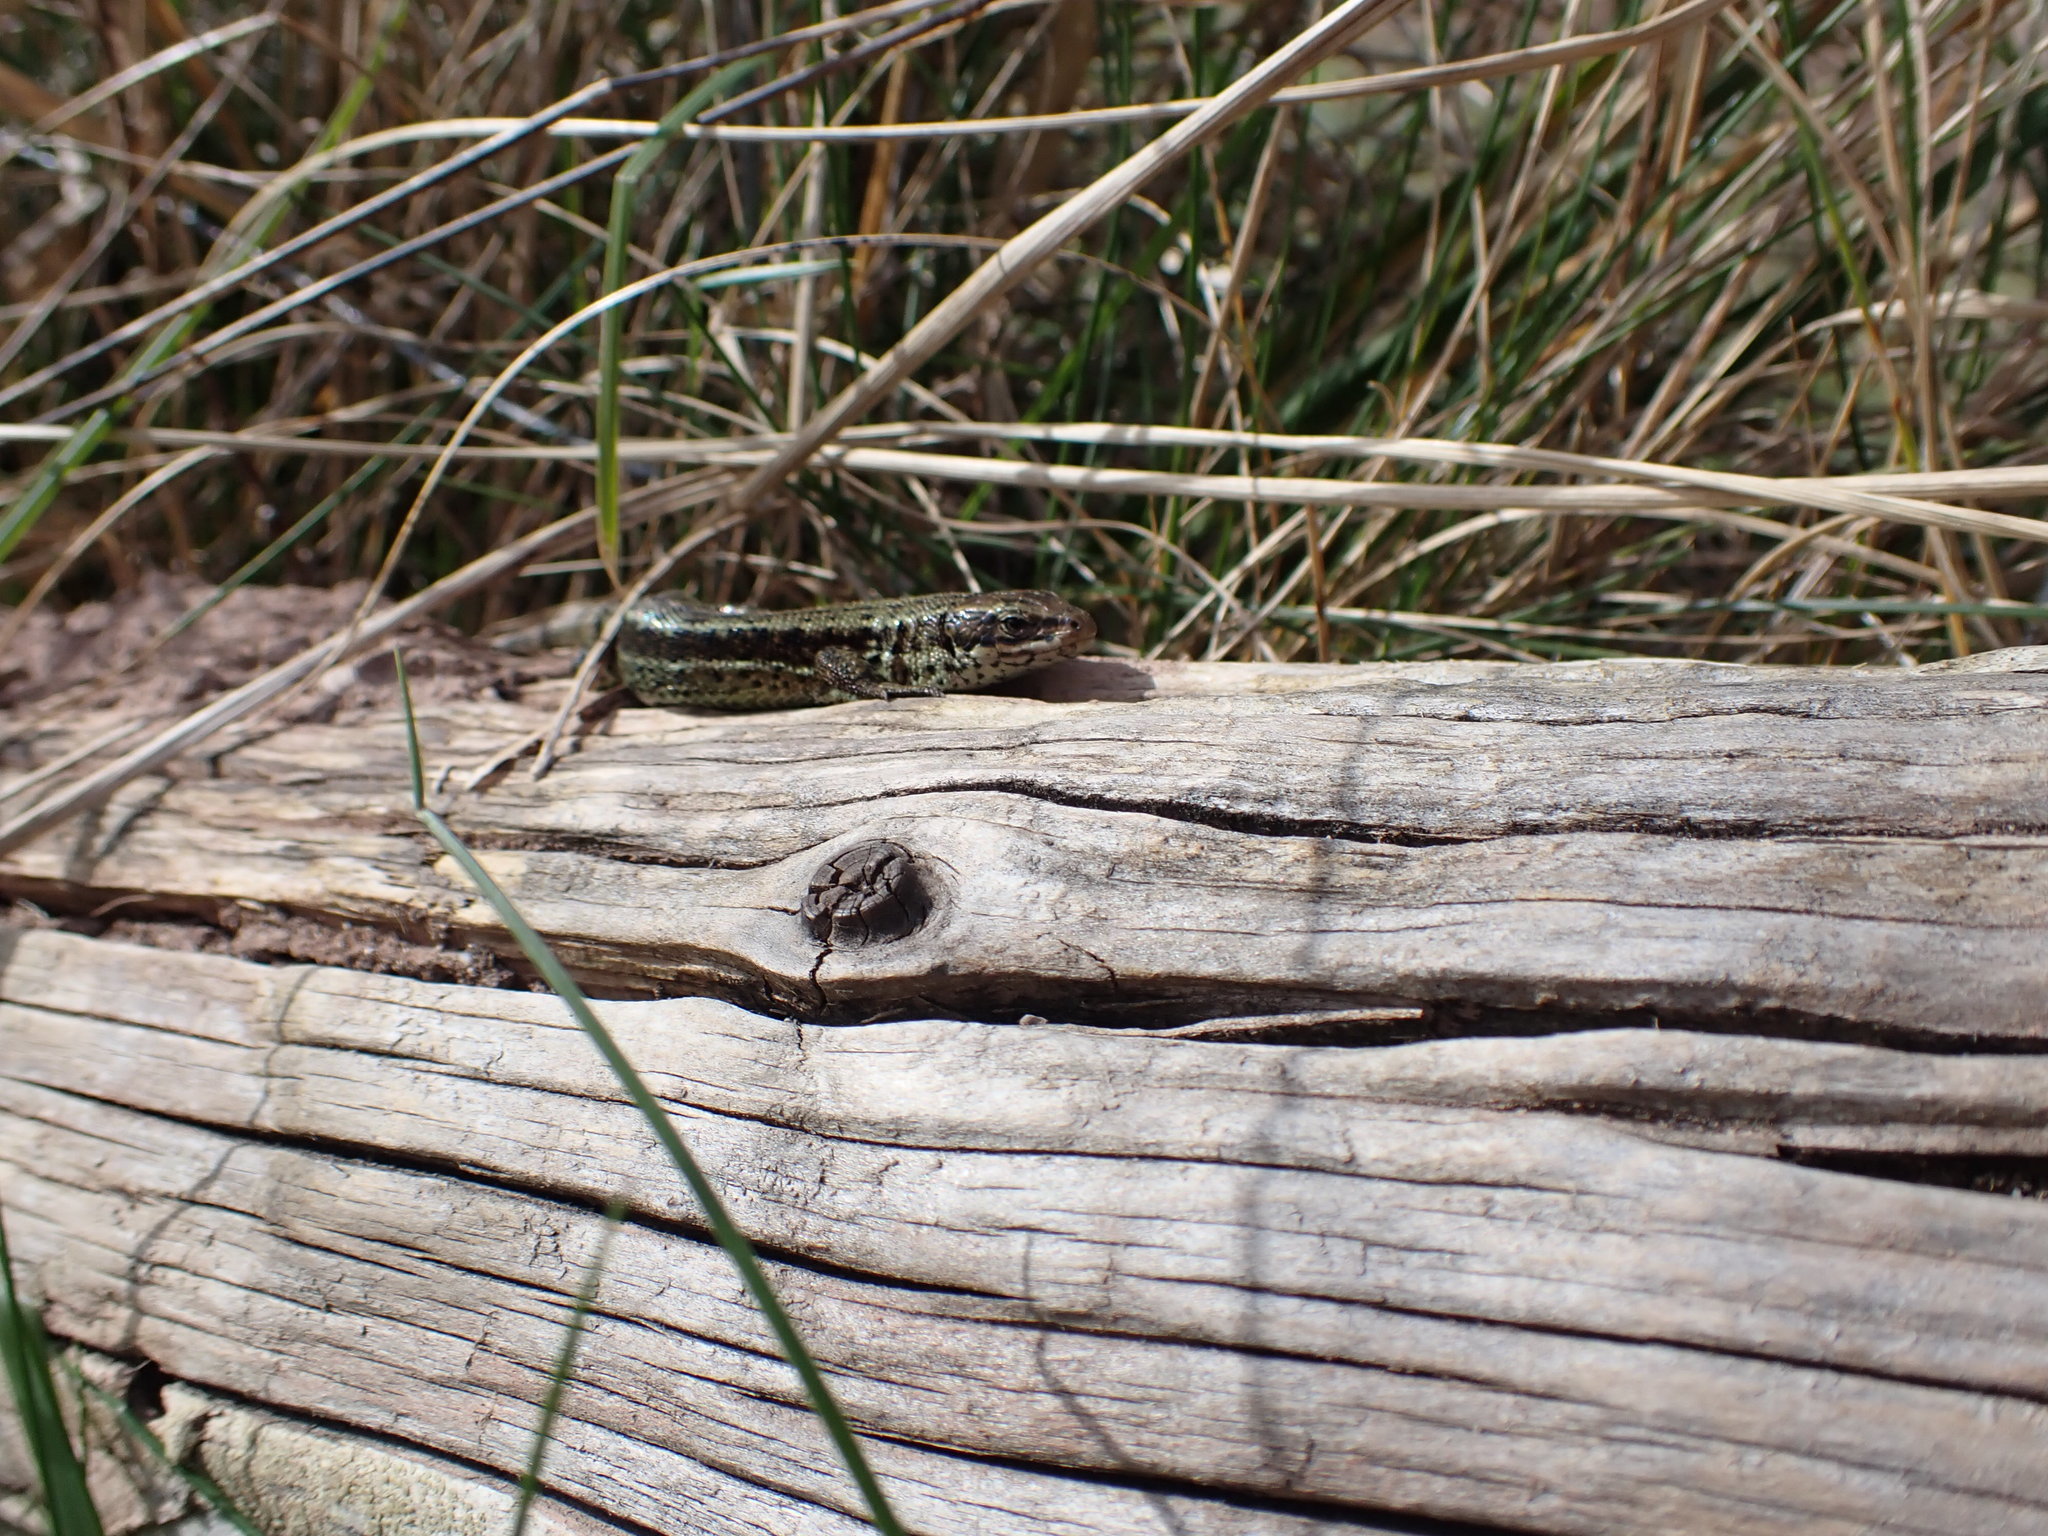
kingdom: Animalia
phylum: Chordata
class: Squamata
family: Lacertidae
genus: Zootoca
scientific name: Zootoca vivipara
